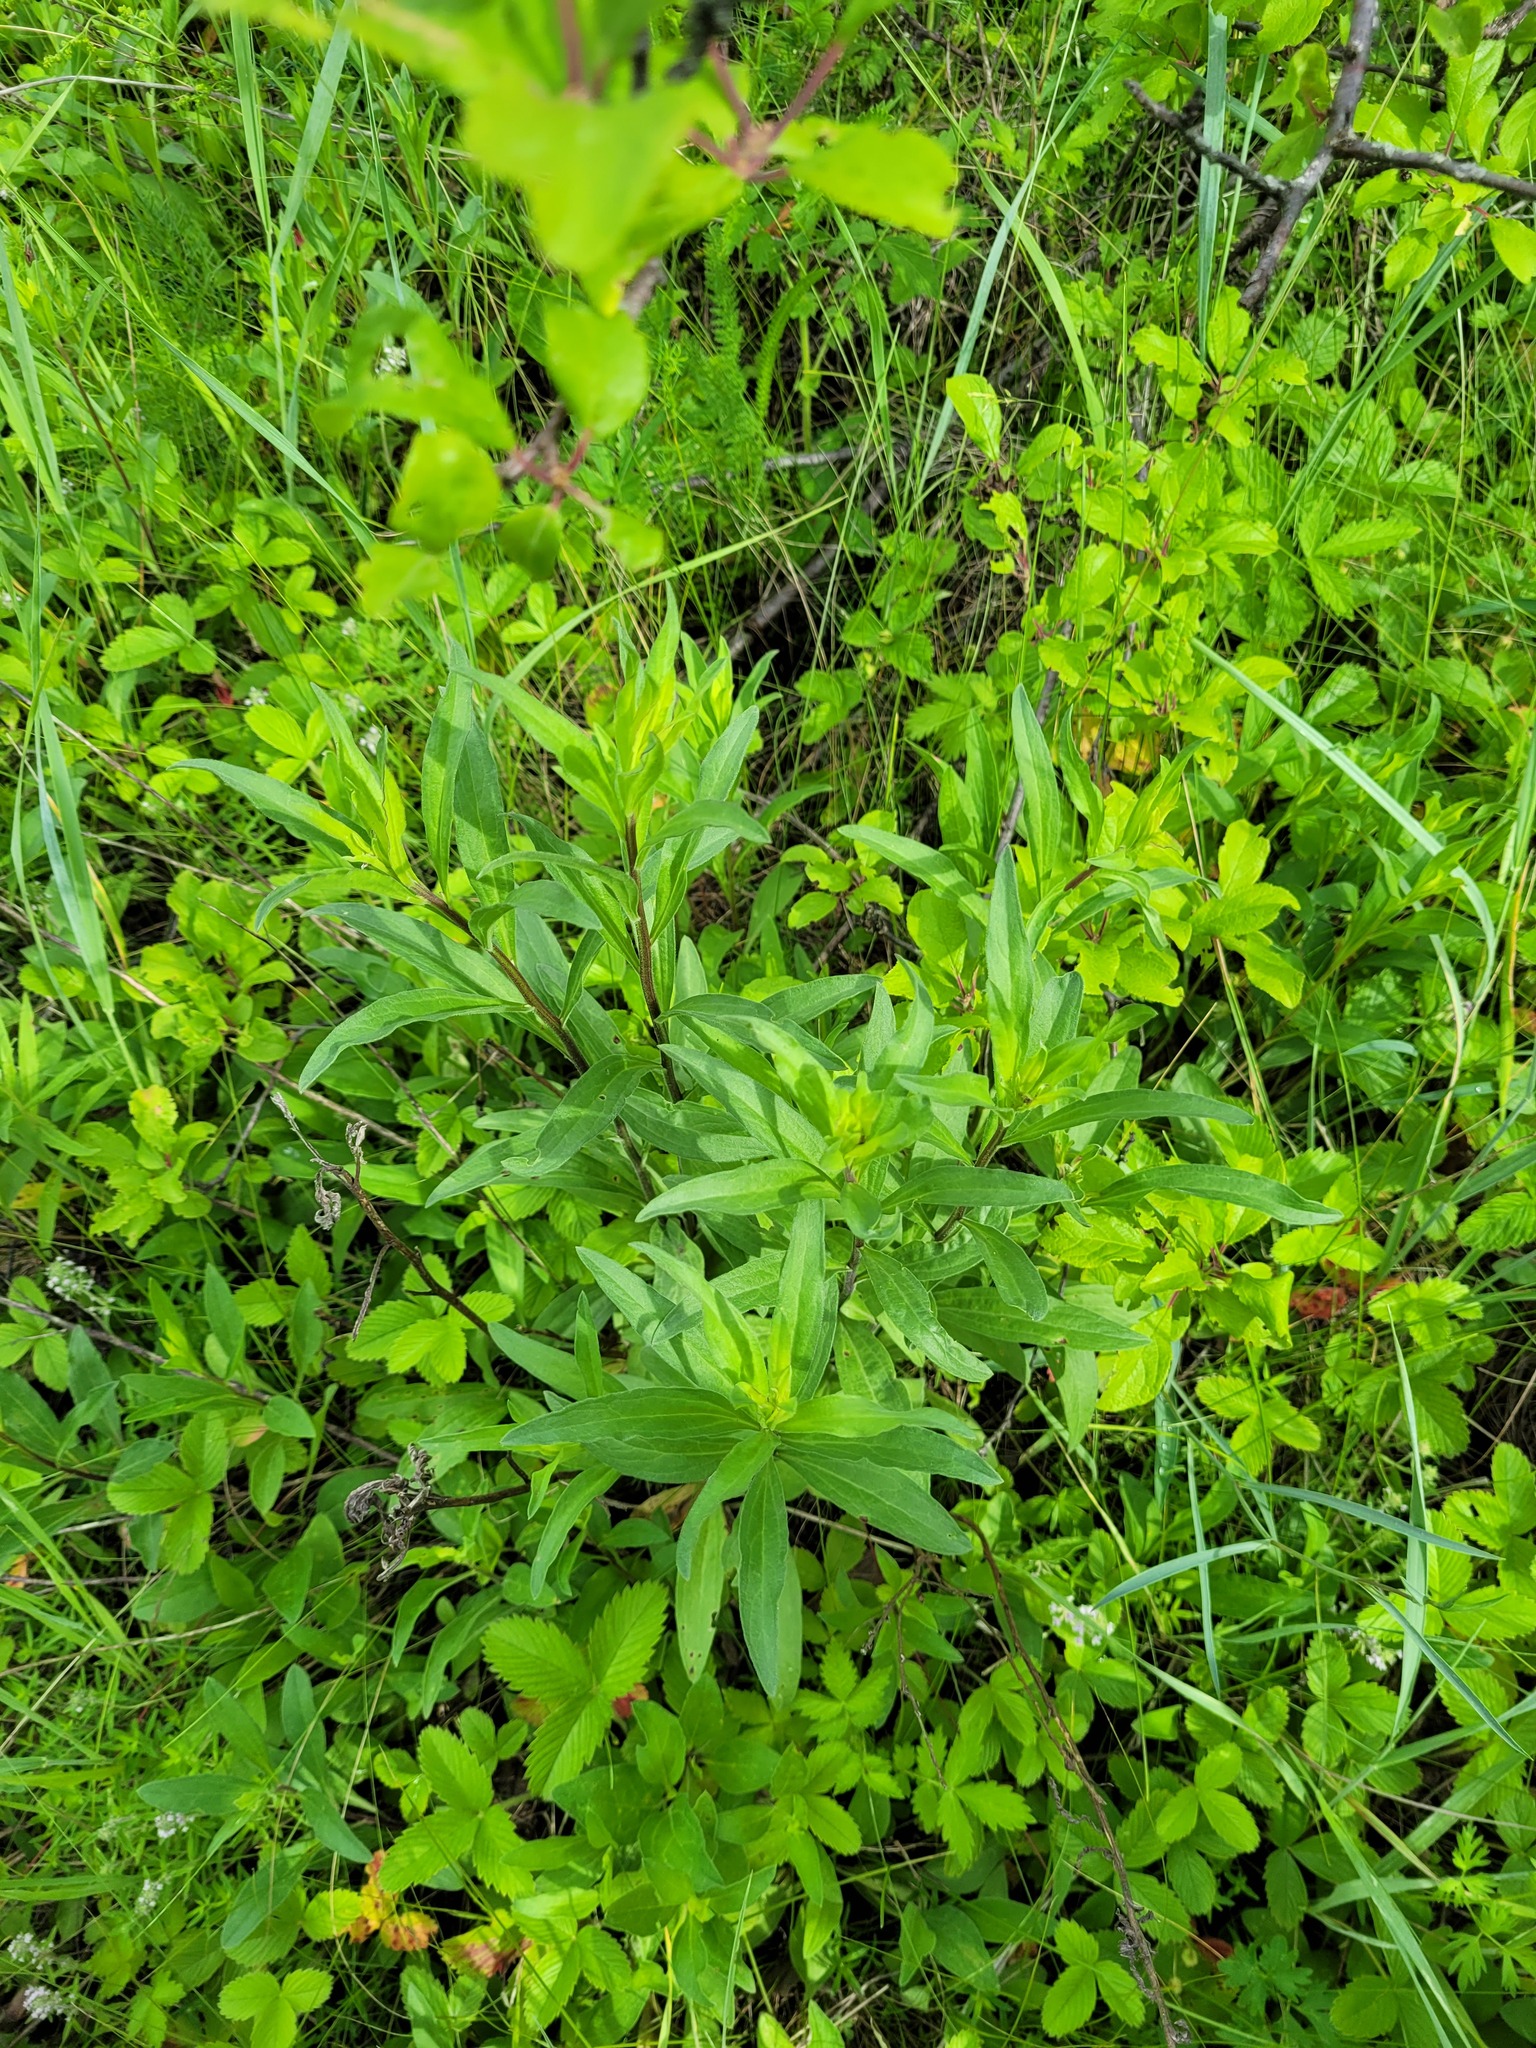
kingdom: Plantae
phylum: Tracheophyta
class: Magnoliopsida
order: Asterales
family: Asteraceae
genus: Aster
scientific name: Aster amellus
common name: European michaelmas daisy
